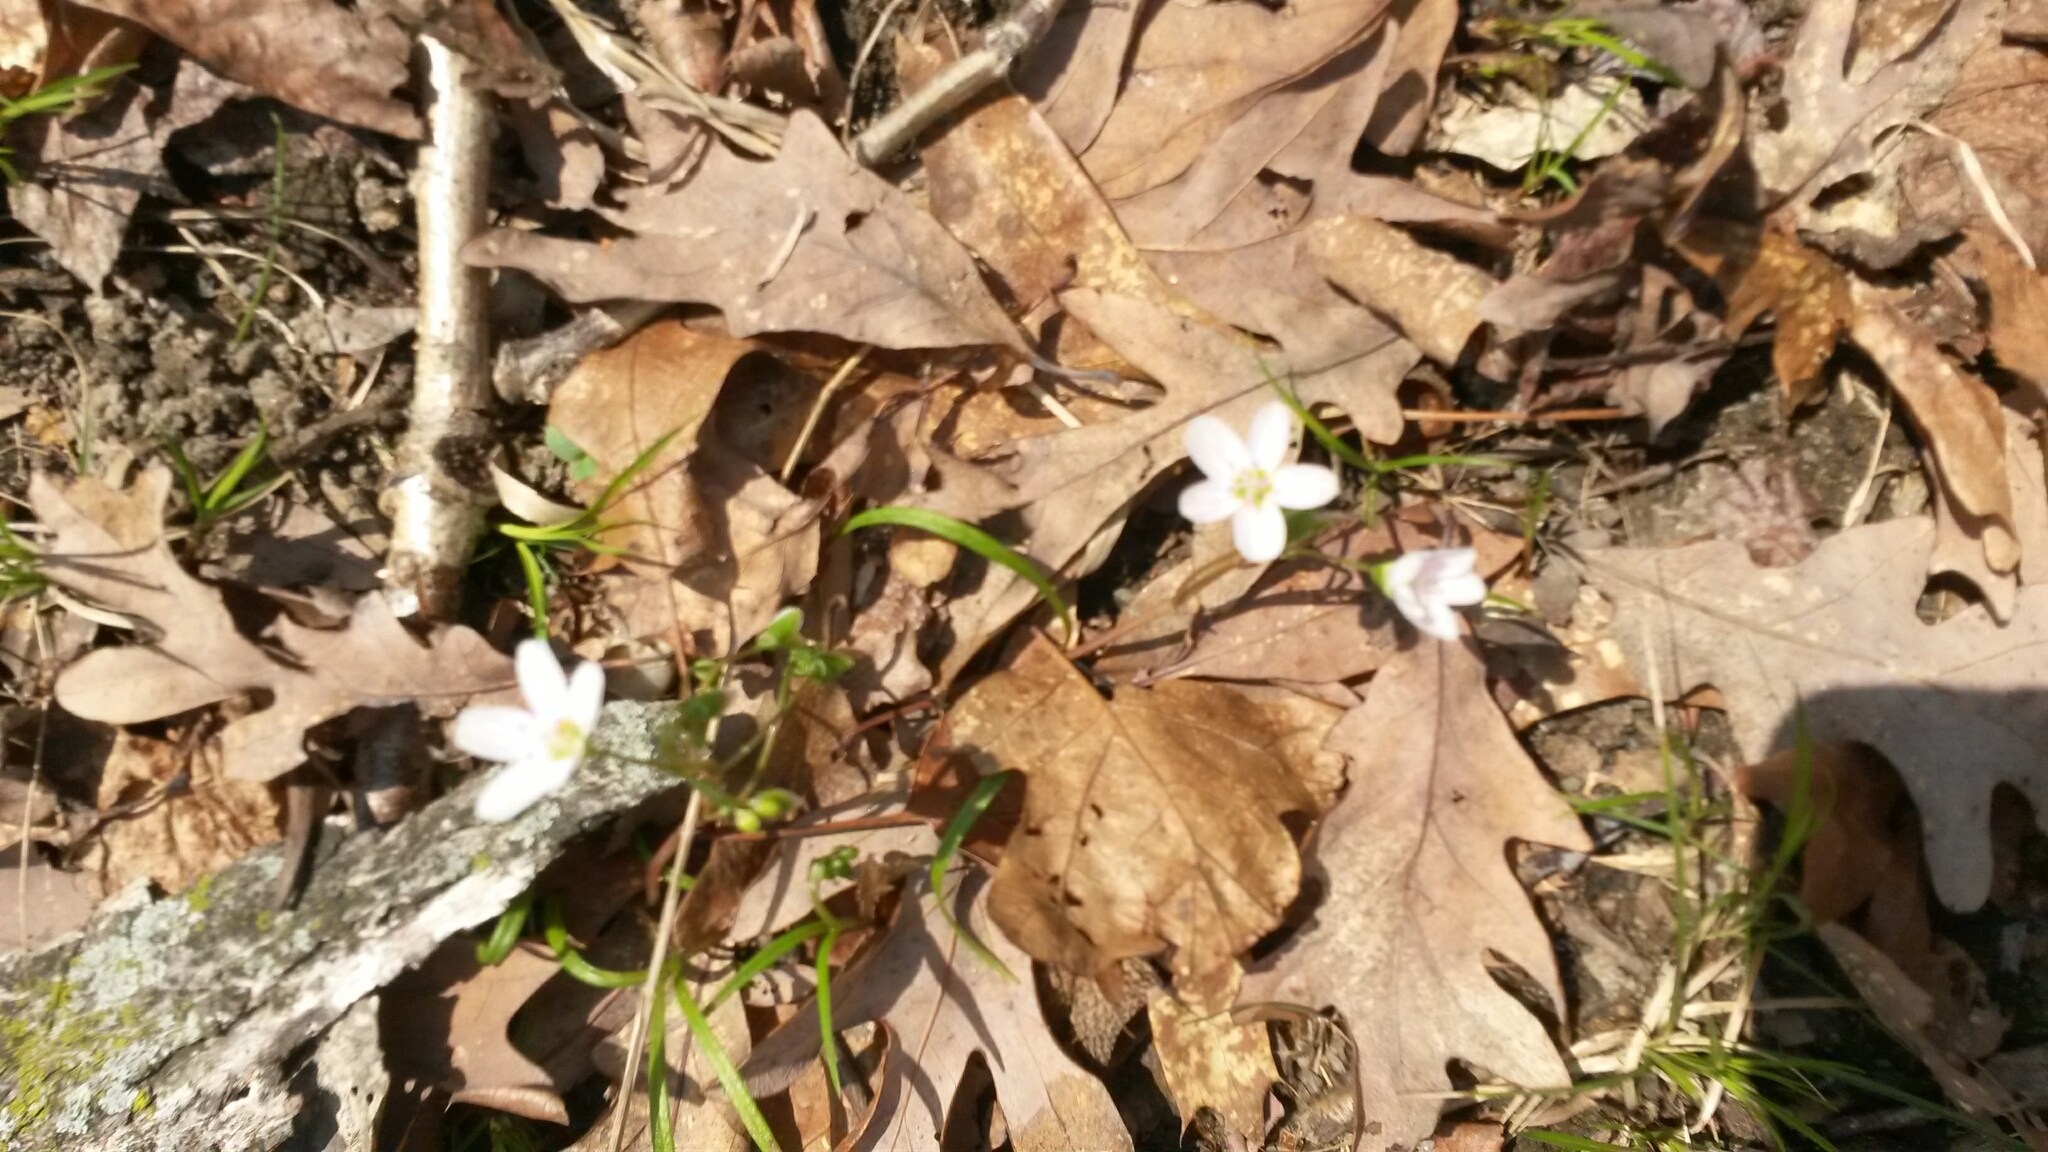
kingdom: Plantae
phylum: Tracheophyta
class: Magnoliopsida
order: Caryophyllales
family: Montiaceae
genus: Claytonia
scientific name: Claytonia virginica
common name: Virginia springbeauty
